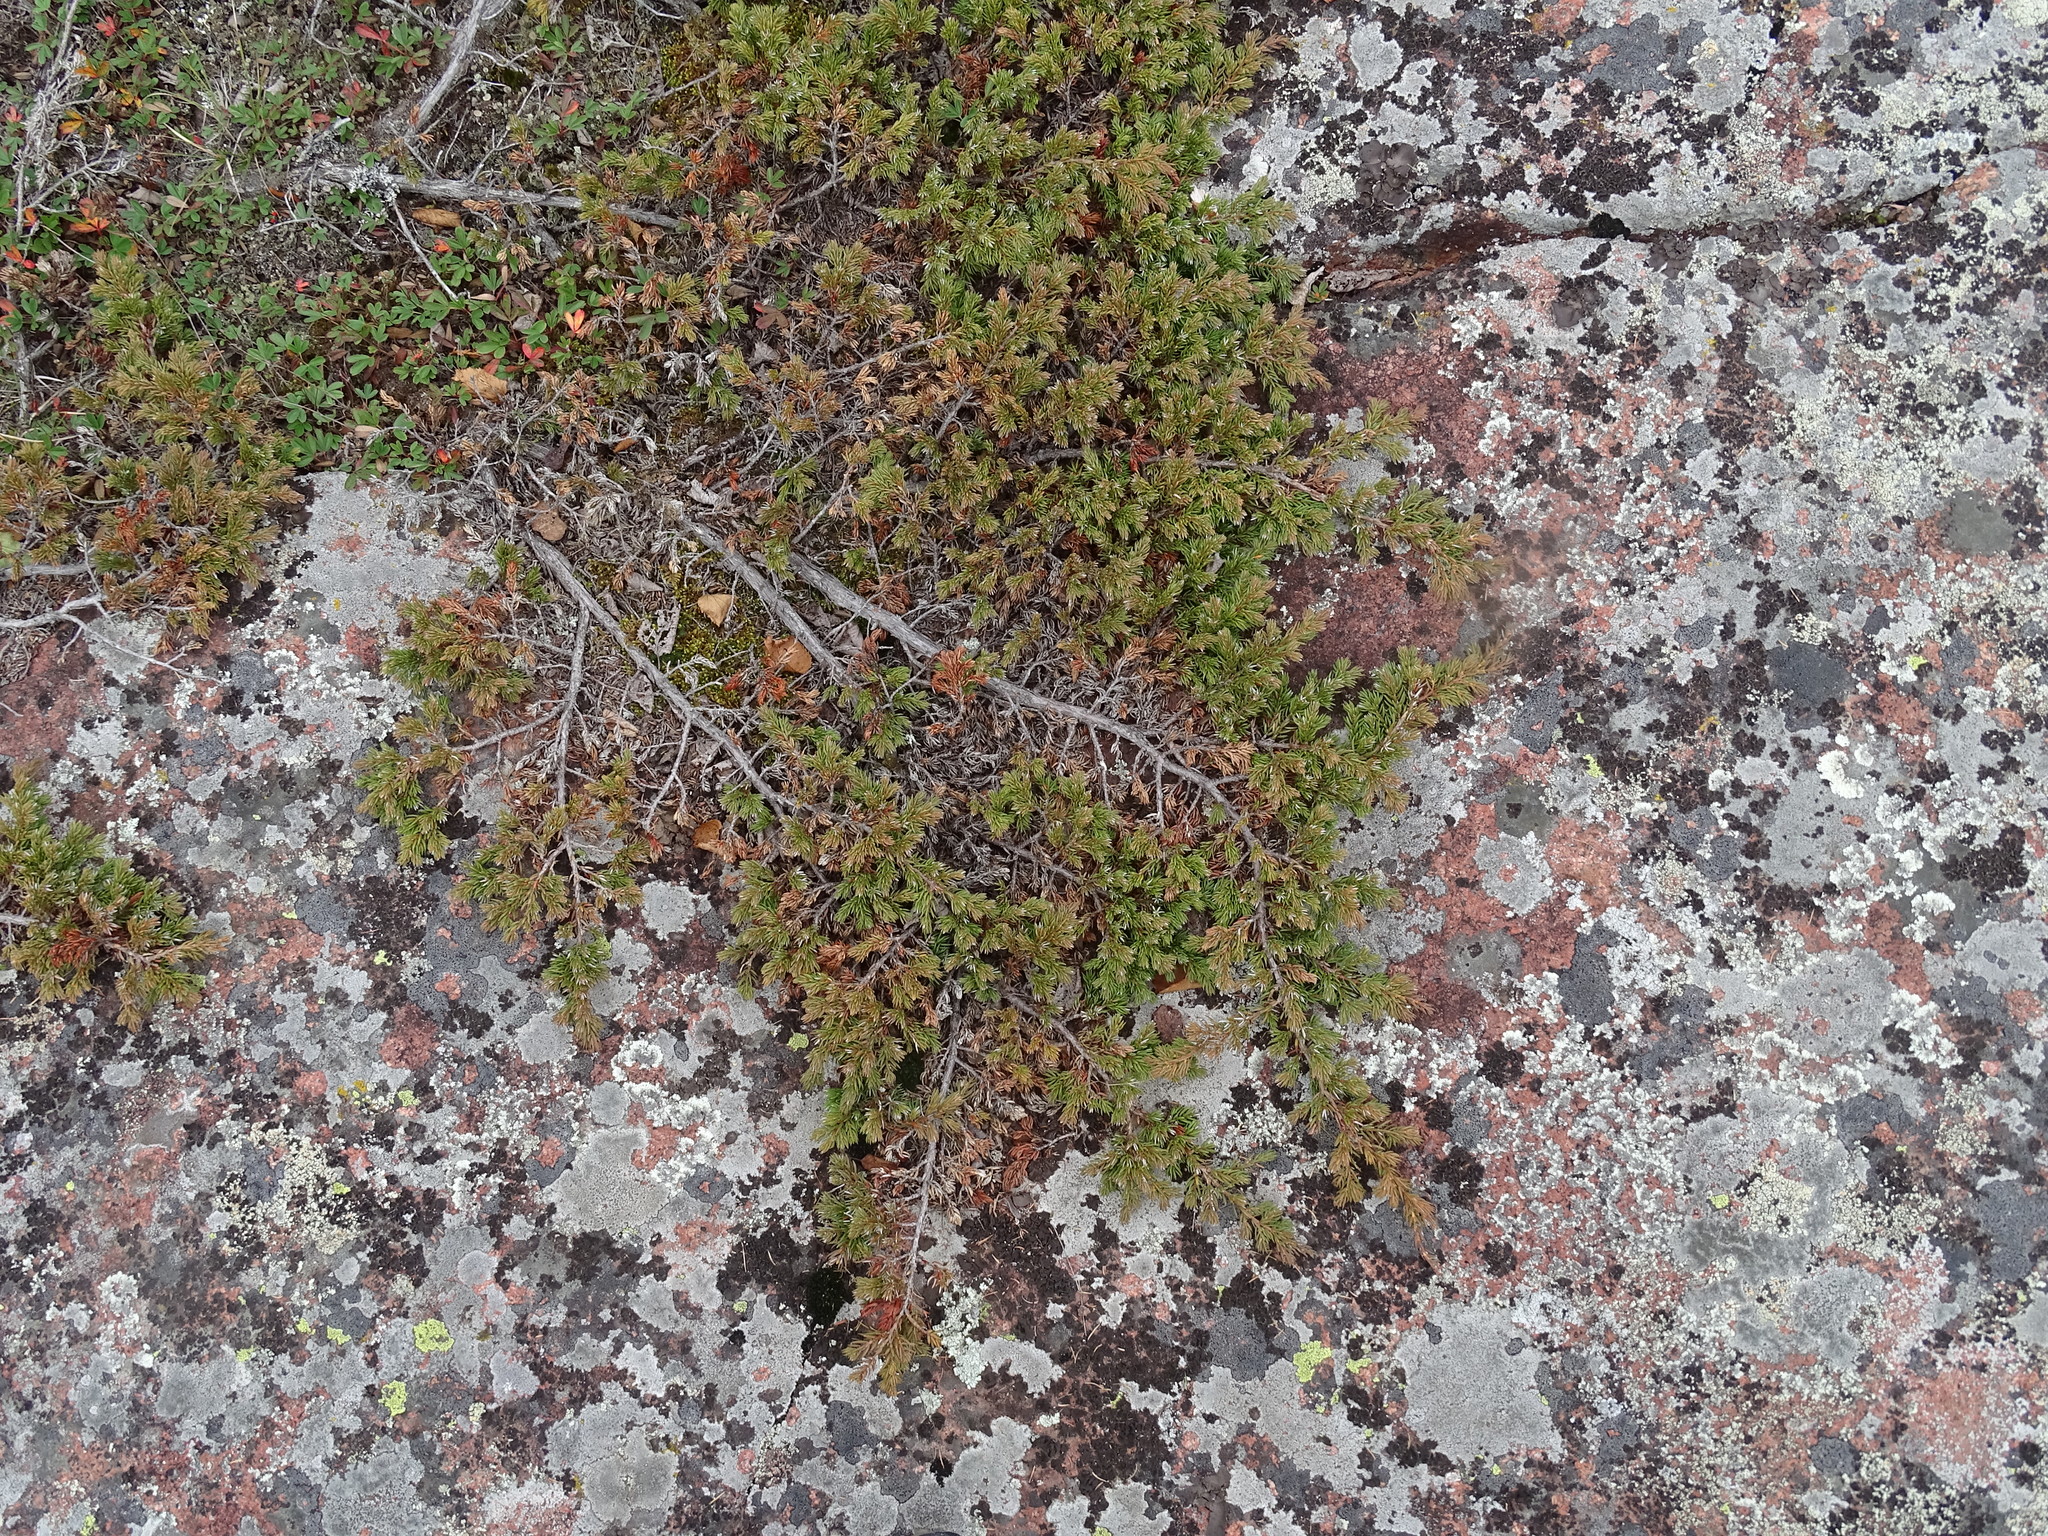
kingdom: Plantae
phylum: Tracheophyta
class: Pinopsida
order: Pinales
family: Cupressaceae
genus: Juniperus
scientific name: Juniperus communis
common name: Common juniper
